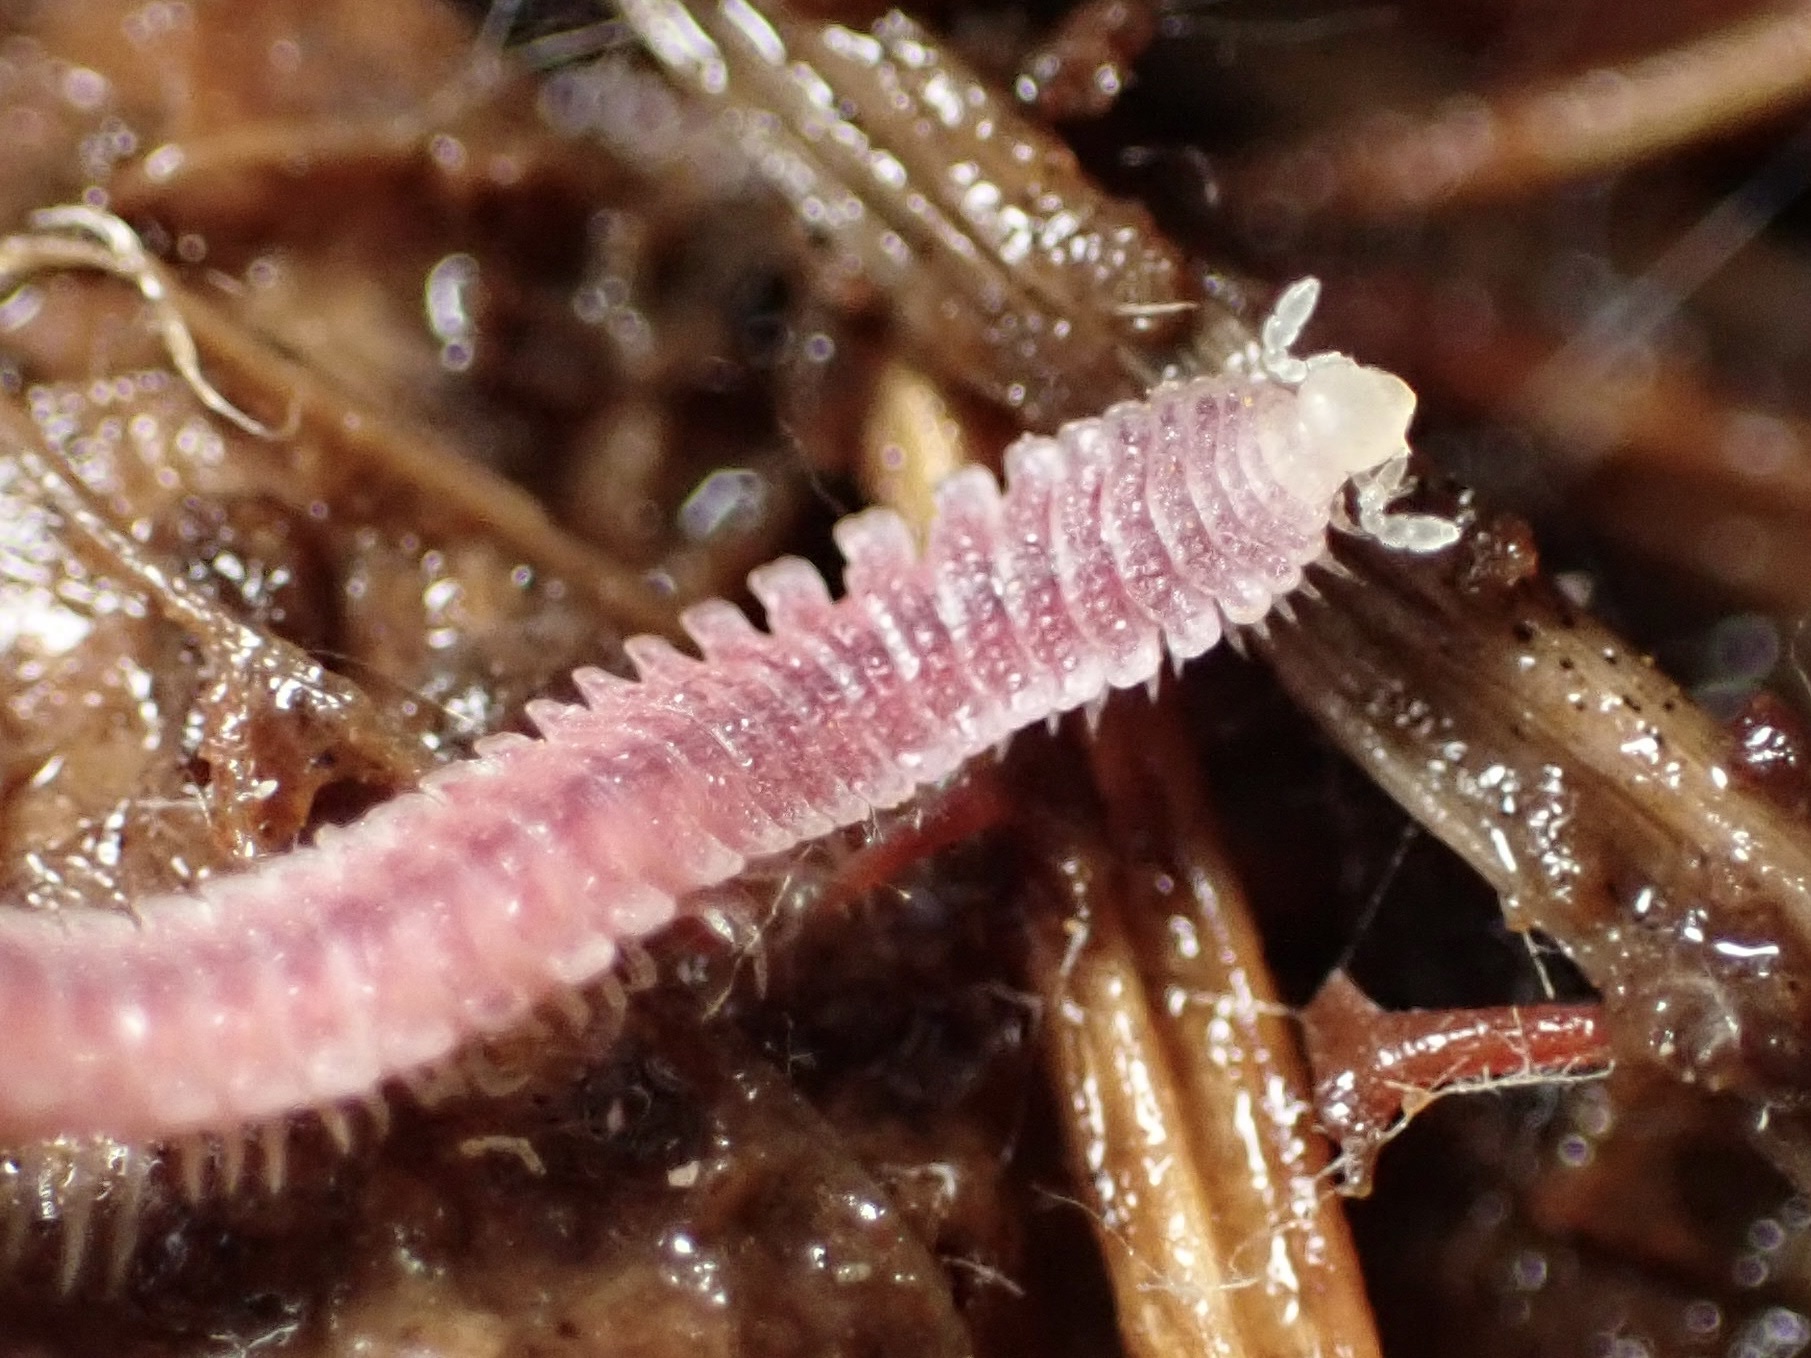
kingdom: Animalia
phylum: Arthropoda
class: Diplopoda
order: Platydesmida
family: Andrognathidae
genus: Gosodesmus
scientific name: Gosodesmus claremontus
